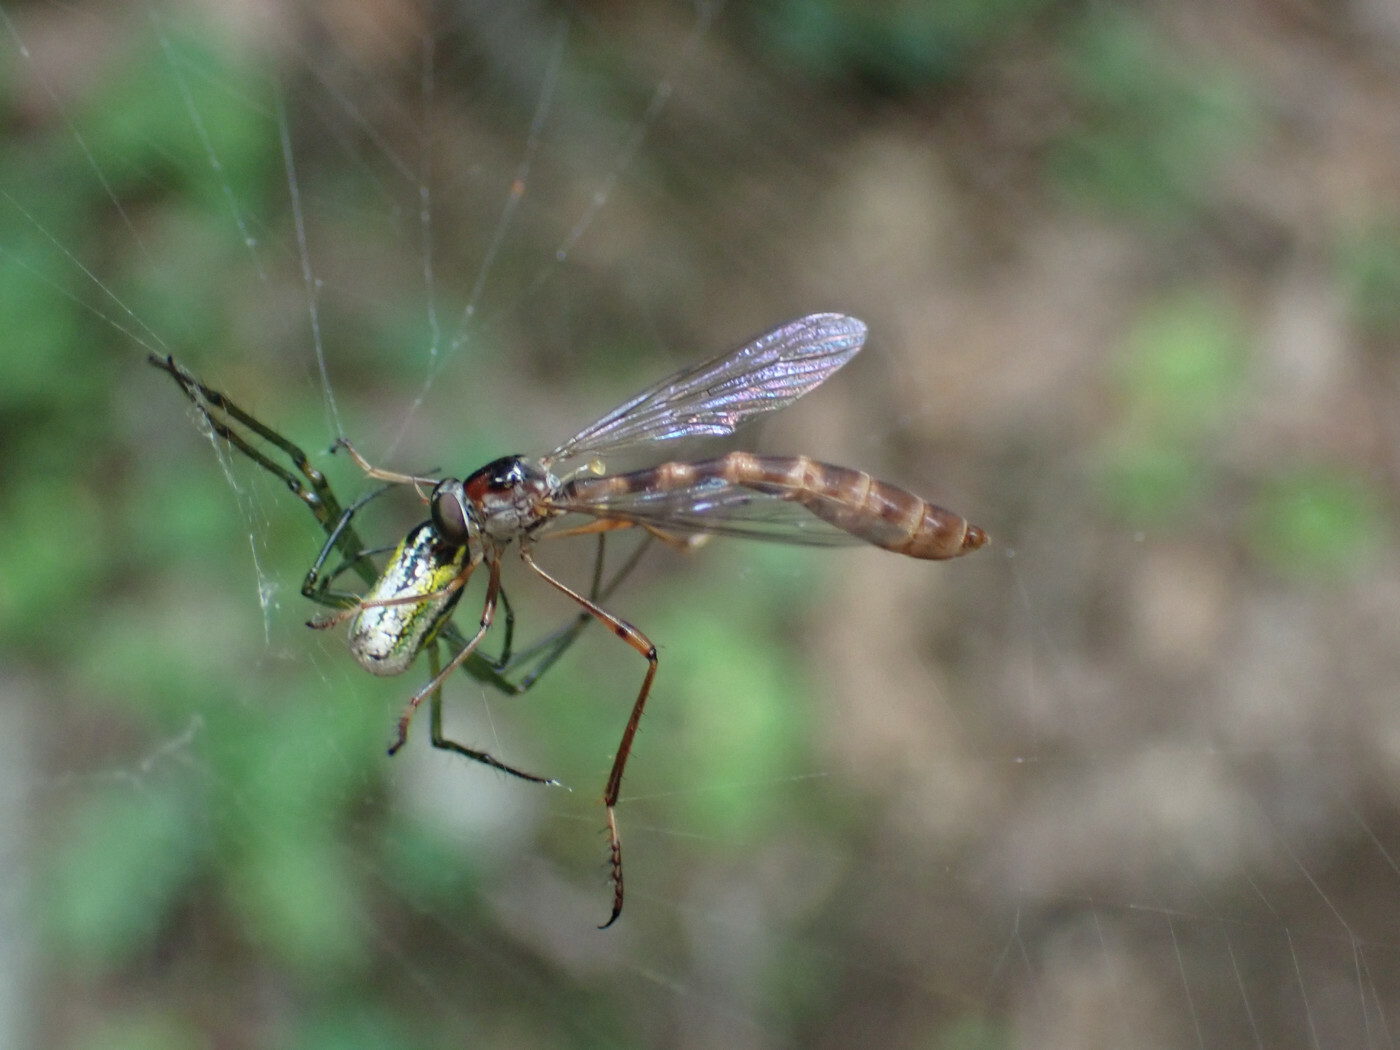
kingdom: Animalia
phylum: Arthropoda
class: Arachnida
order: Araneae
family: Tetragnathidae
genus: Leucauge
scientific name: Leucauge venusta
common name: Longjawed orb weavers
